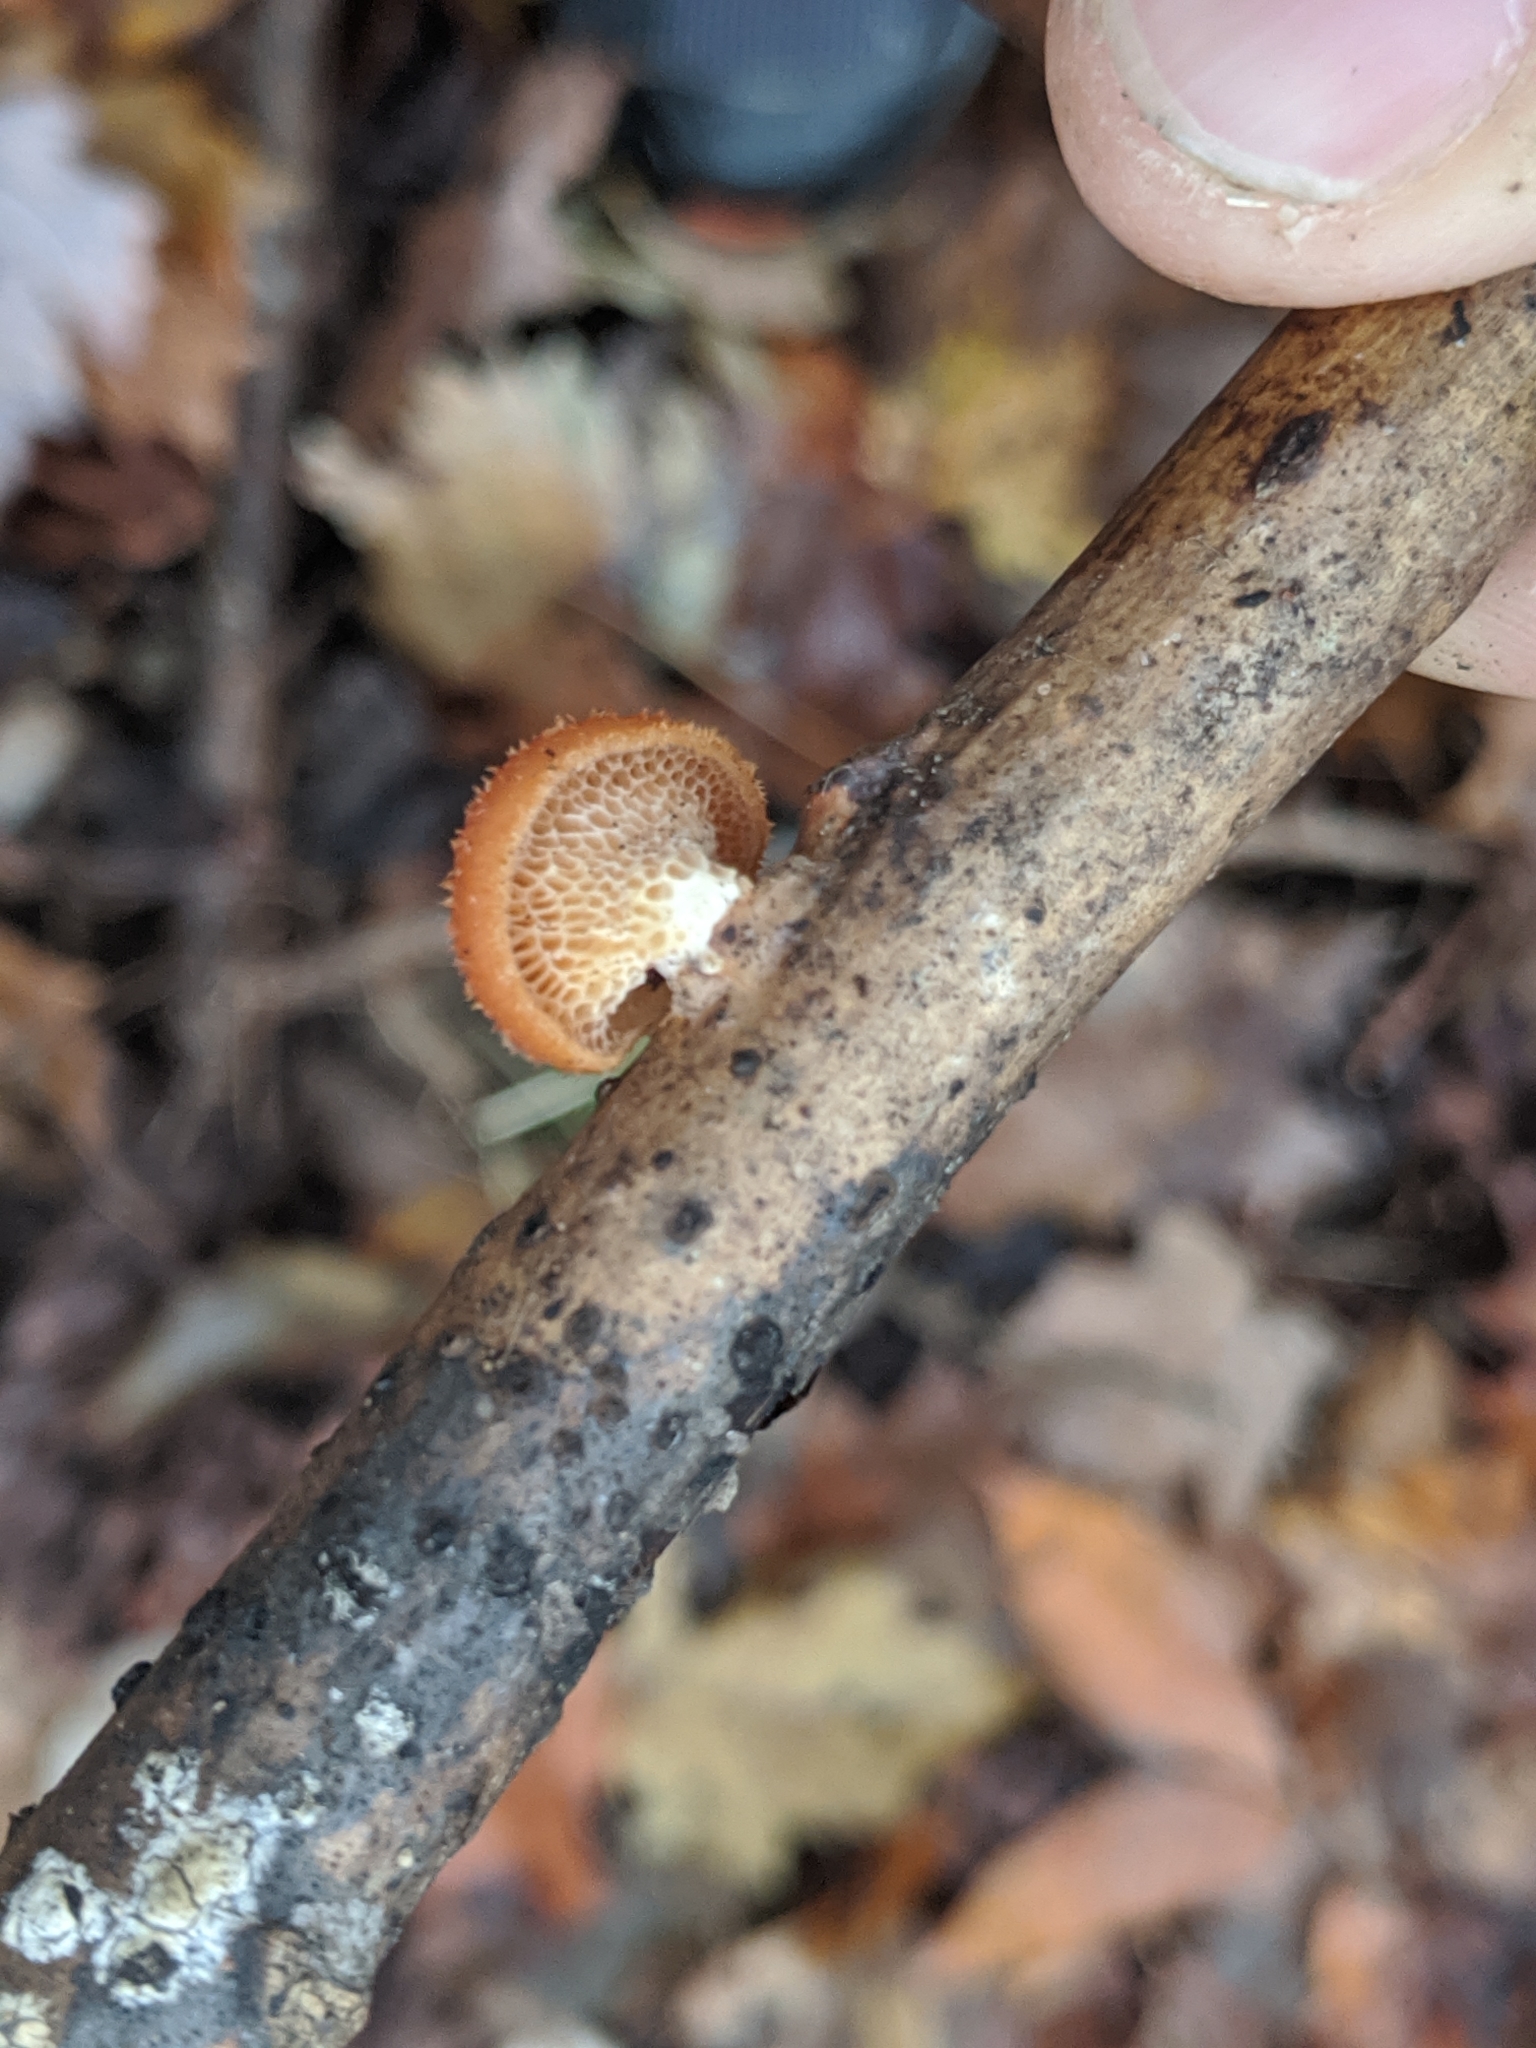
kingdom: Fungi
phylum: Basidiomycota
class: Agaricomycetes
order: Polyporales
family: Polyporaceae
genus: Neofavolus
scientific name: Neofavolus alveolaris
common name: Hexagonal-pored polypore
